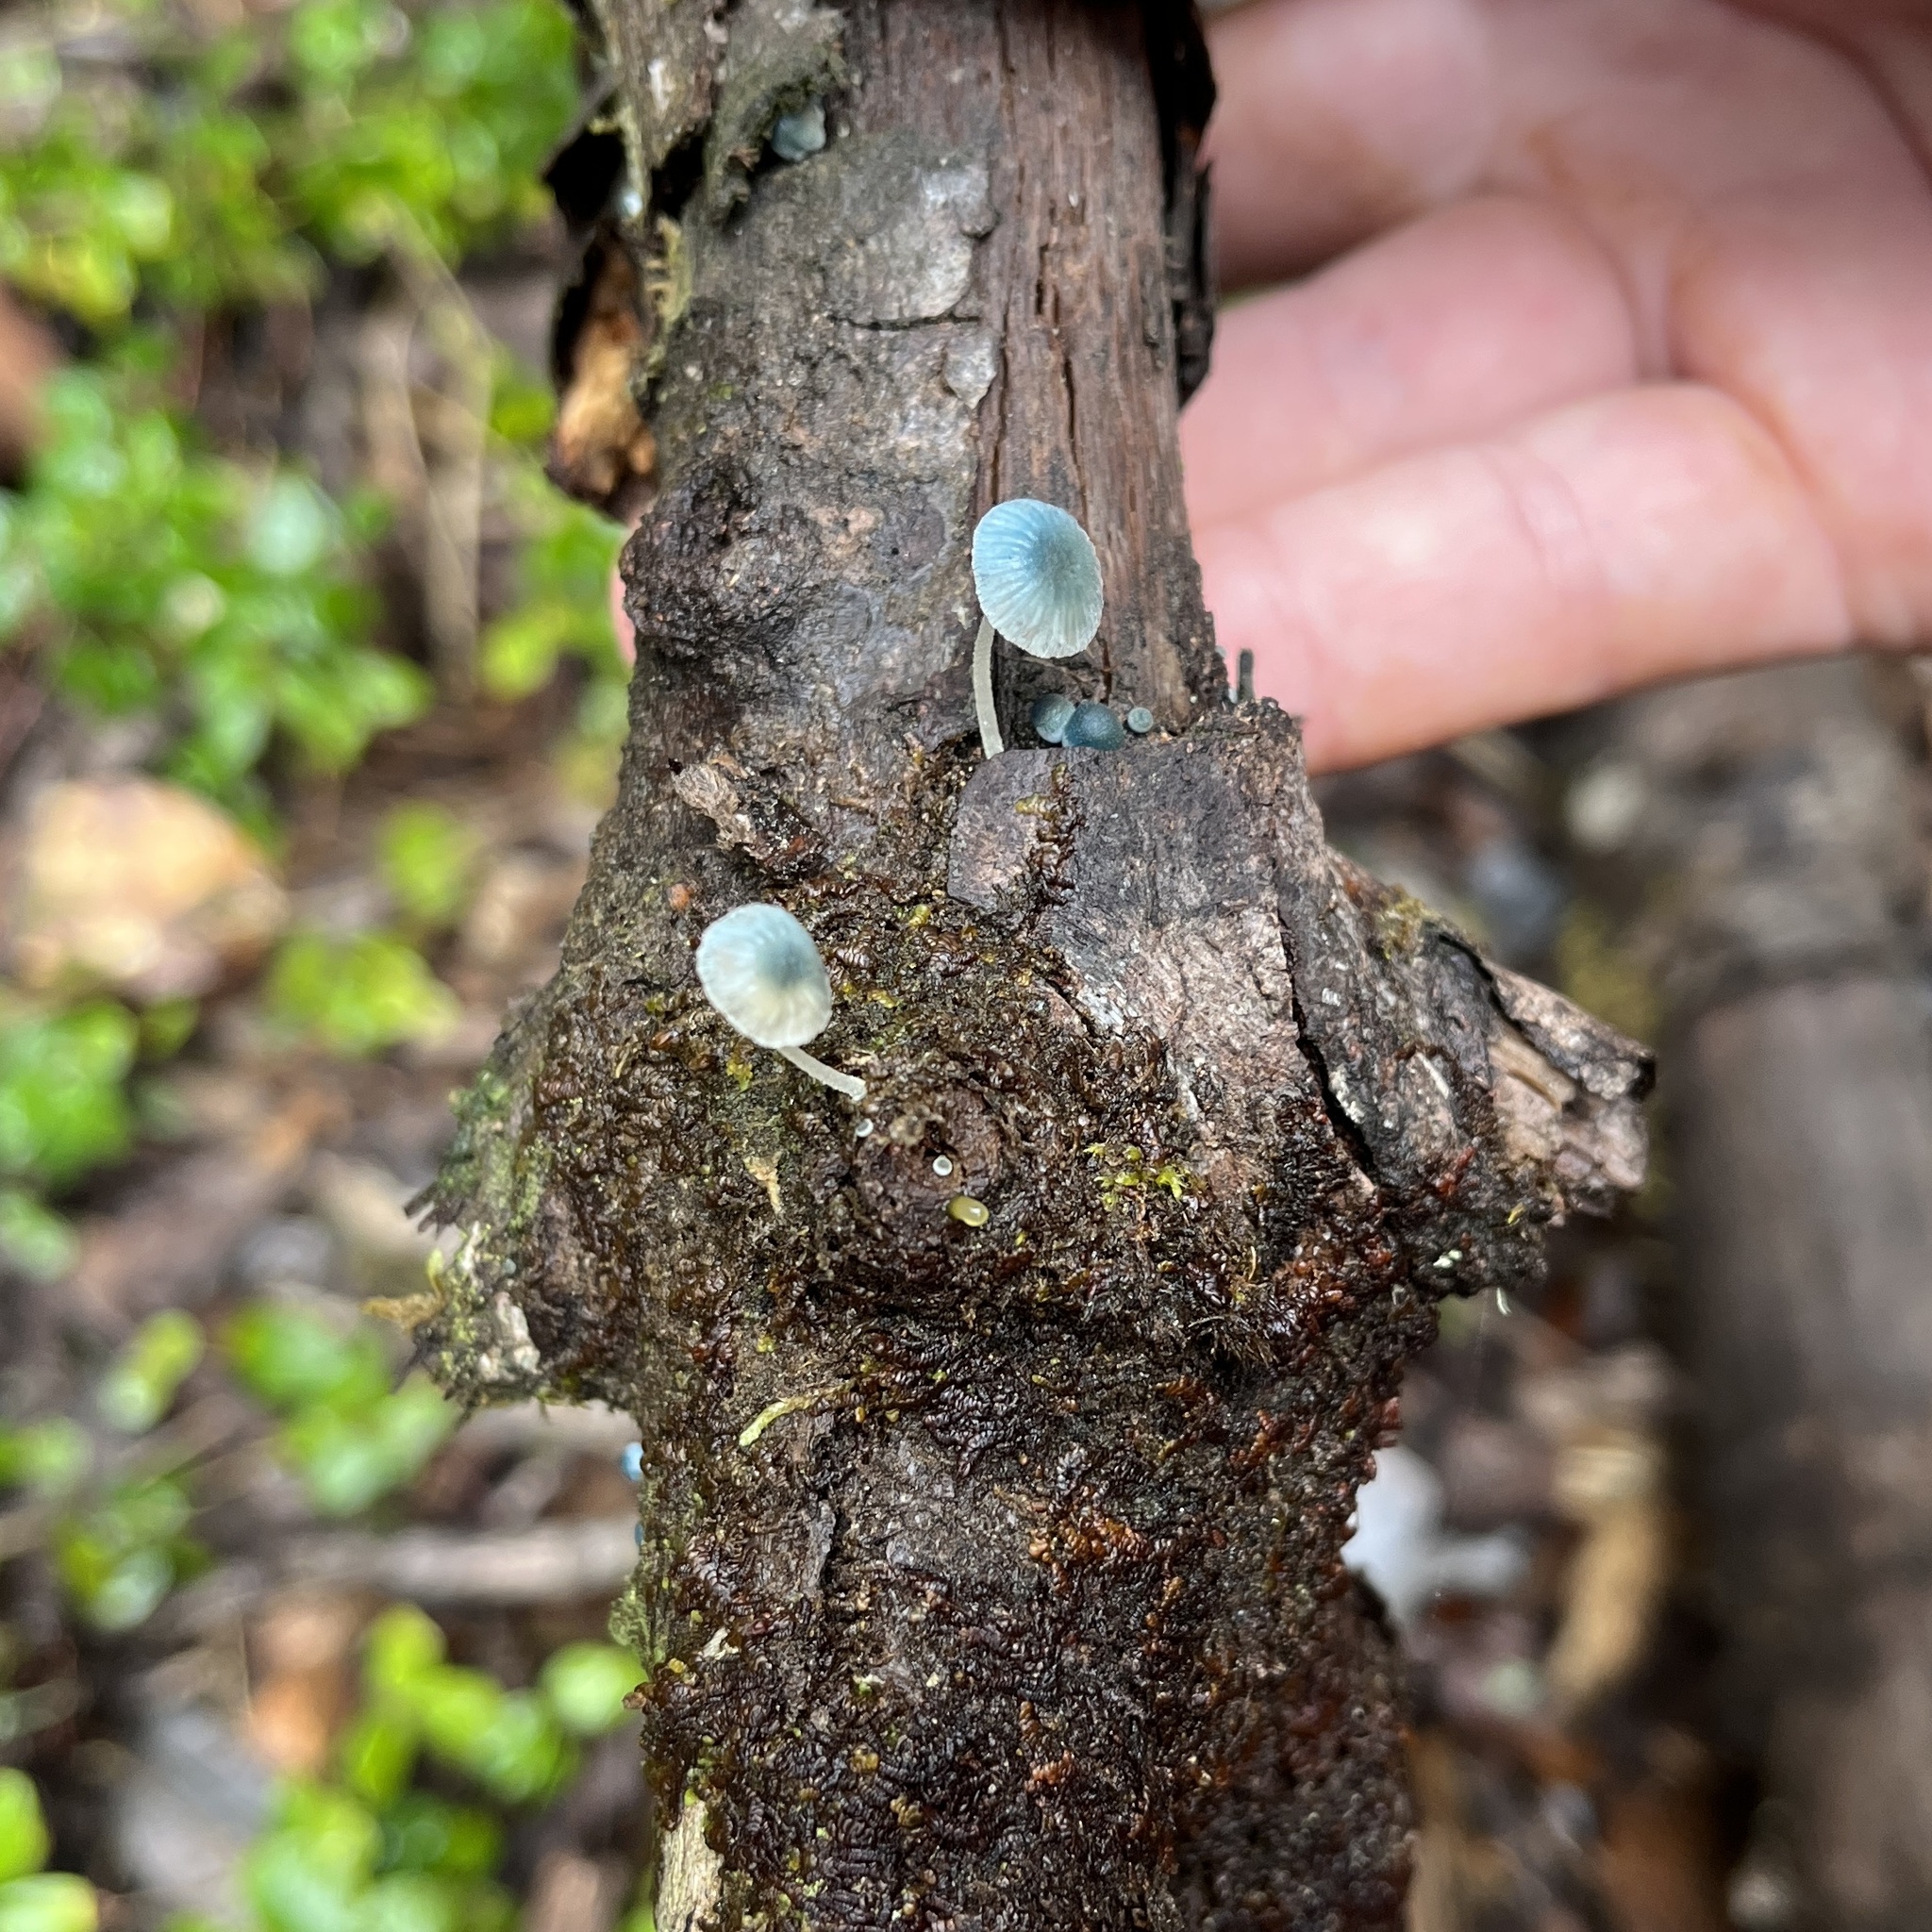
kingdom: Fungi
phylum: Basidiomycota
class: Agaricomycetes
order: Agaricales
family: Mycenaceae
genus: Mycena
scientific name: Mycena cyanocephala
